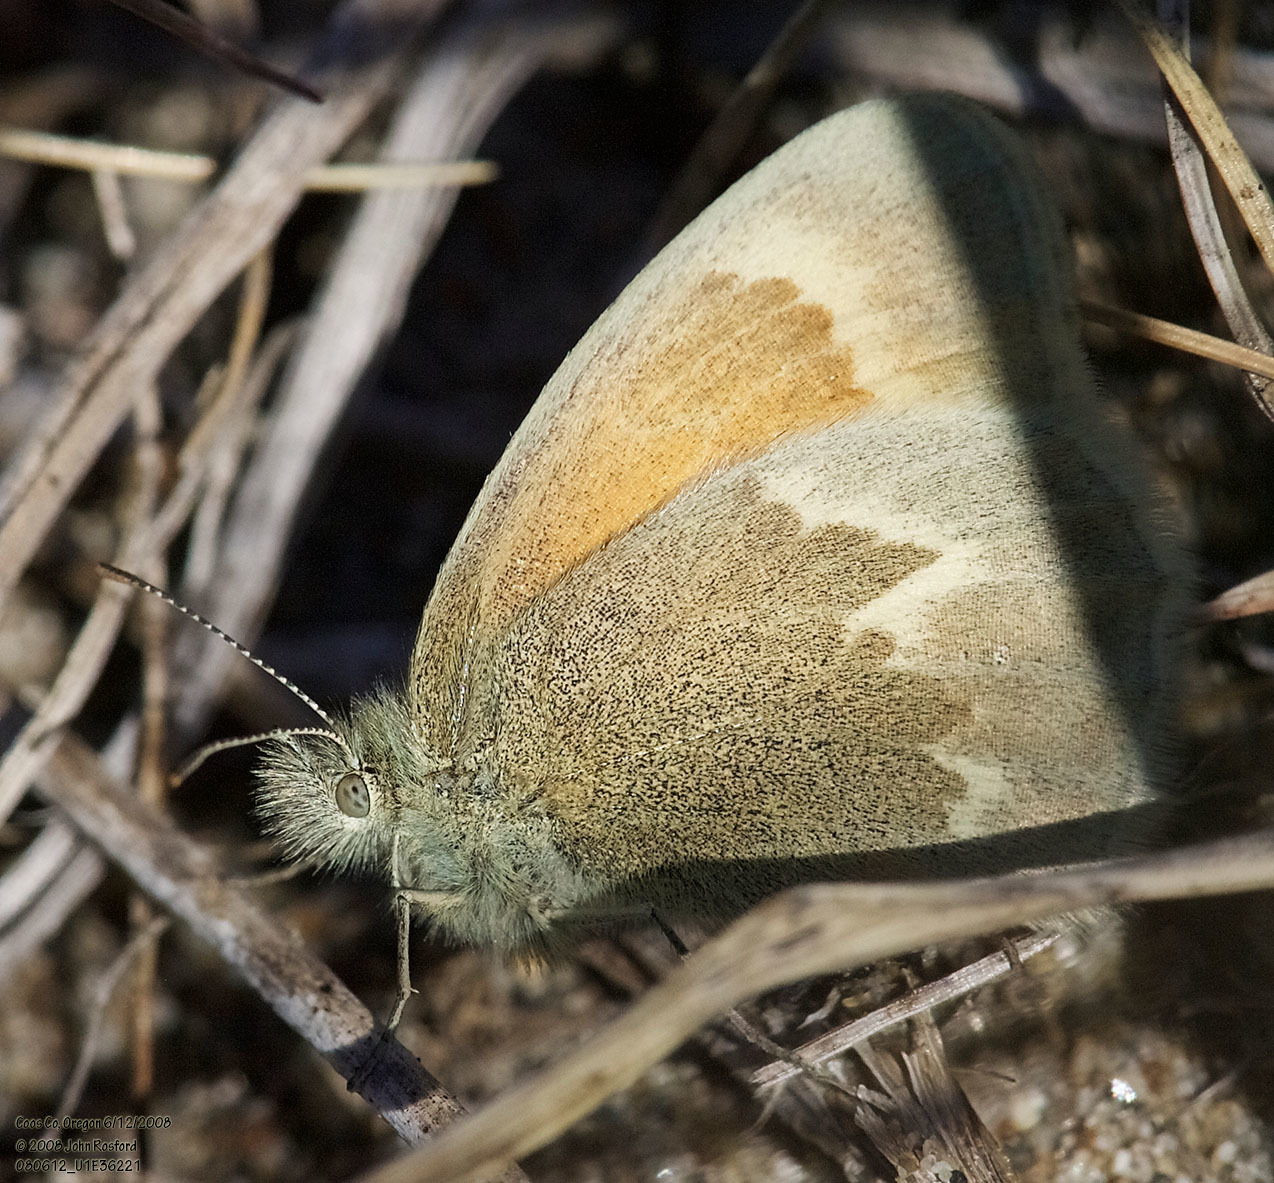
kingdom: Animalia
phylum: Arthropoda
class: Insecta
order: Lepidoptera
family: Nymphalidae
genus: Coenonympha
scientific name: Coenonympha california
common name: Common ringlet
